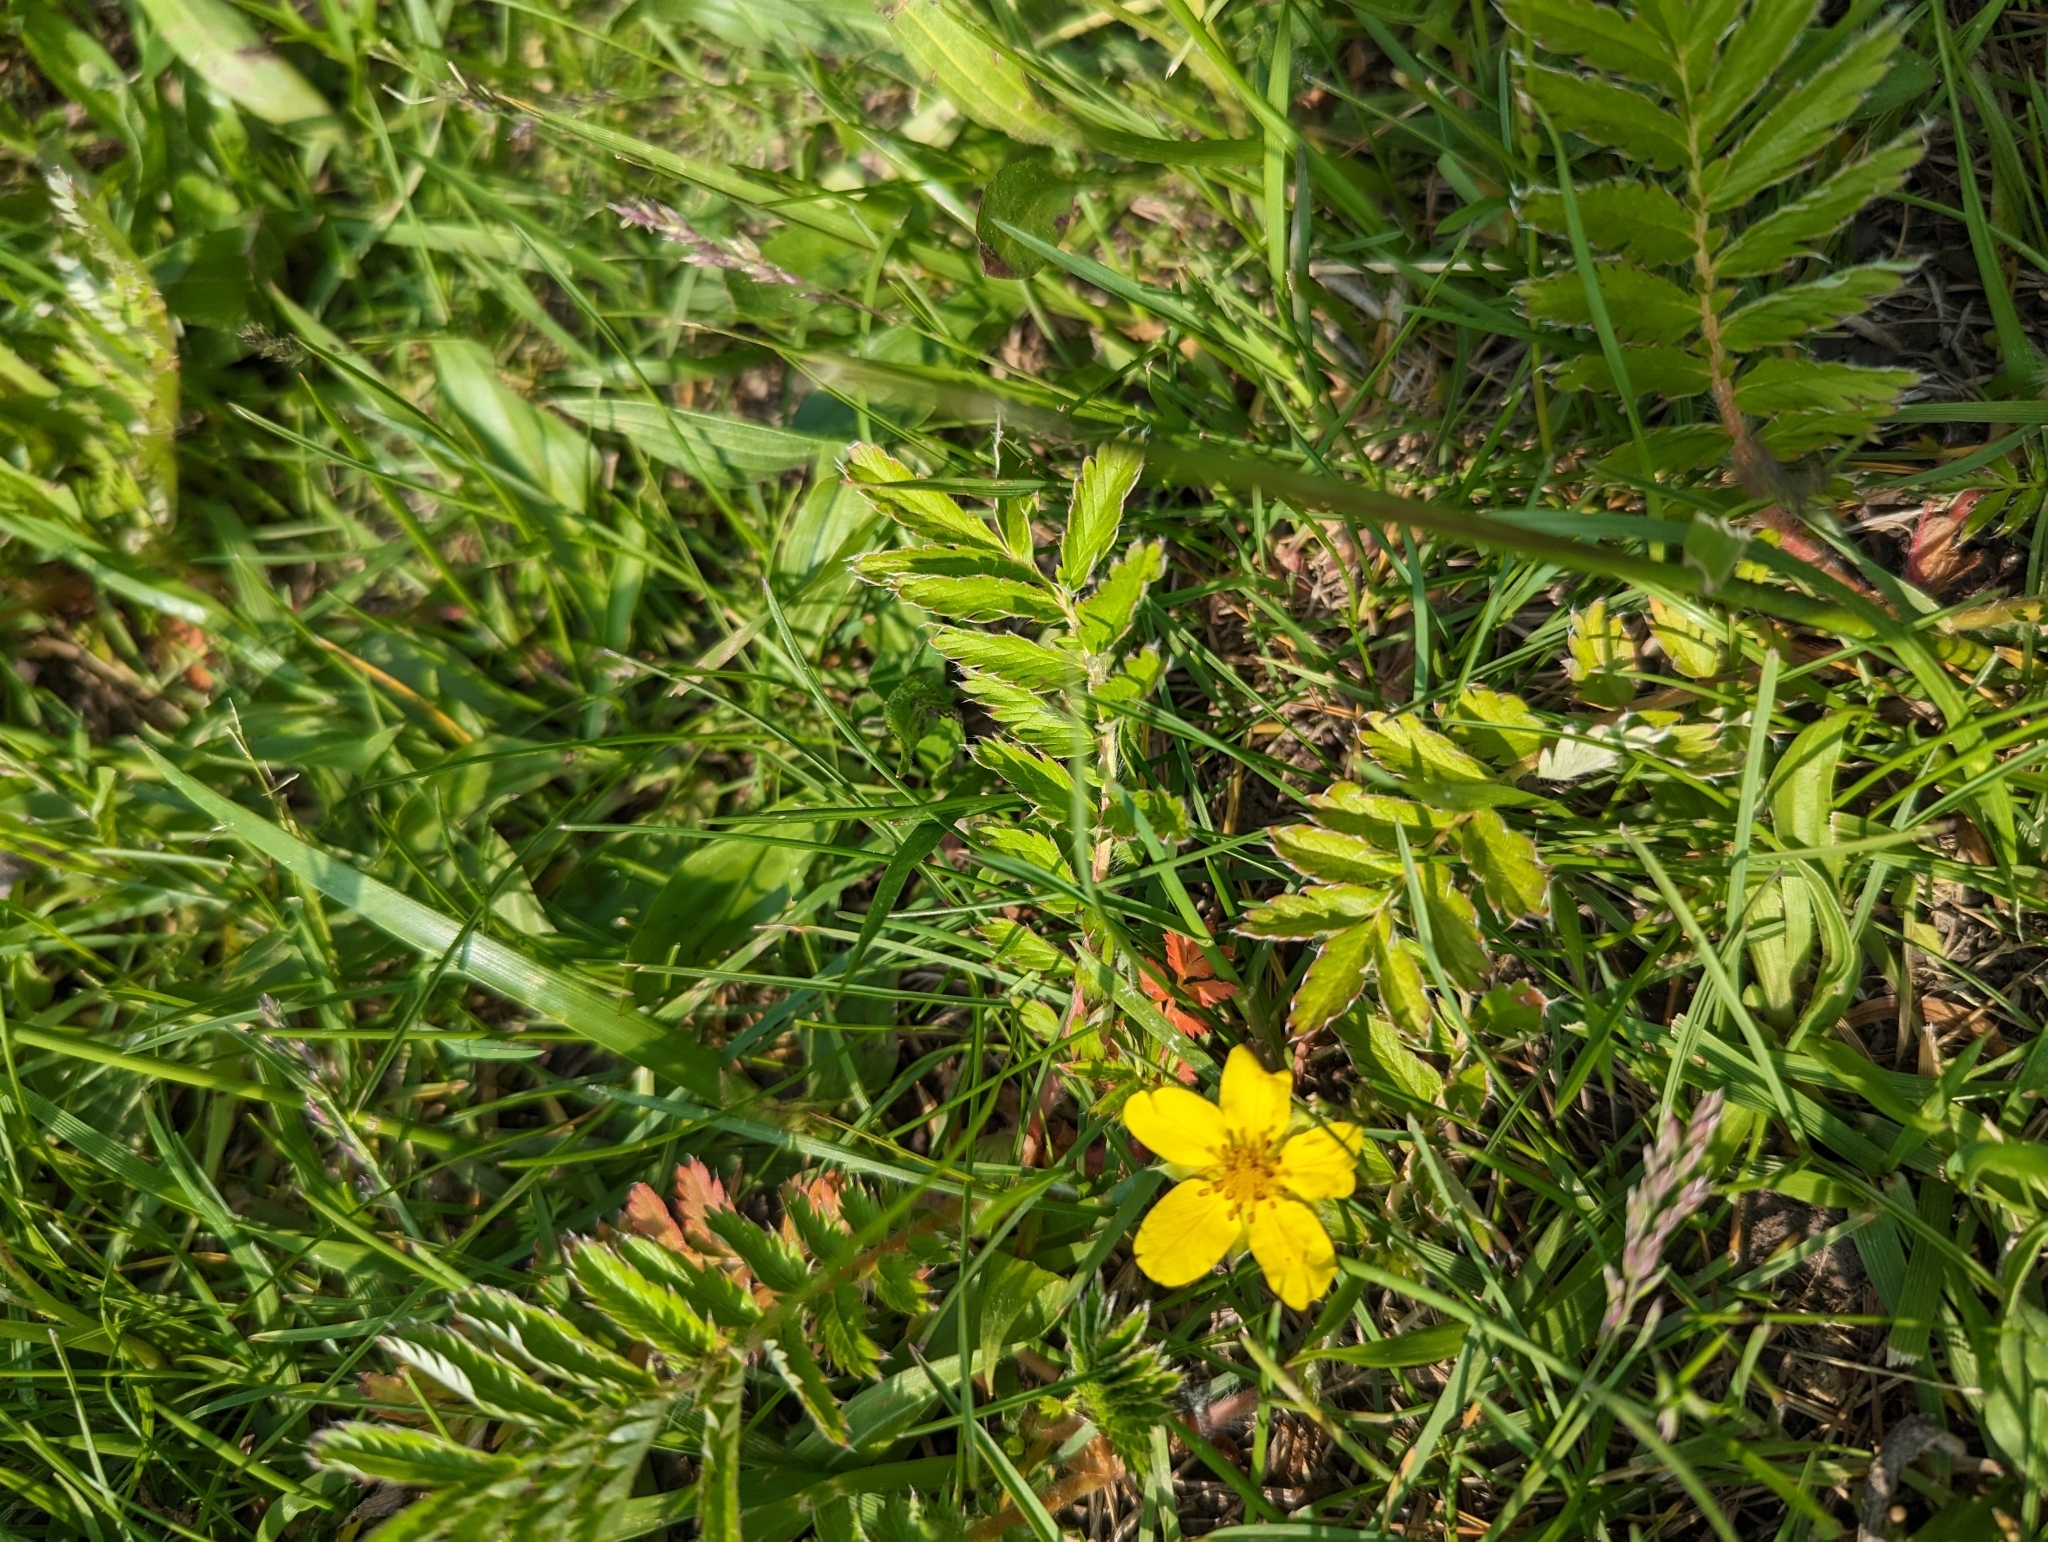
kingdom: Plantae
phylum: Tracheophyta
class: Magnoliopsida
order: Rosales
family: Rosaceae
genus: Argentina
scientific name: Argentina anserina
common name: Common silverweed
